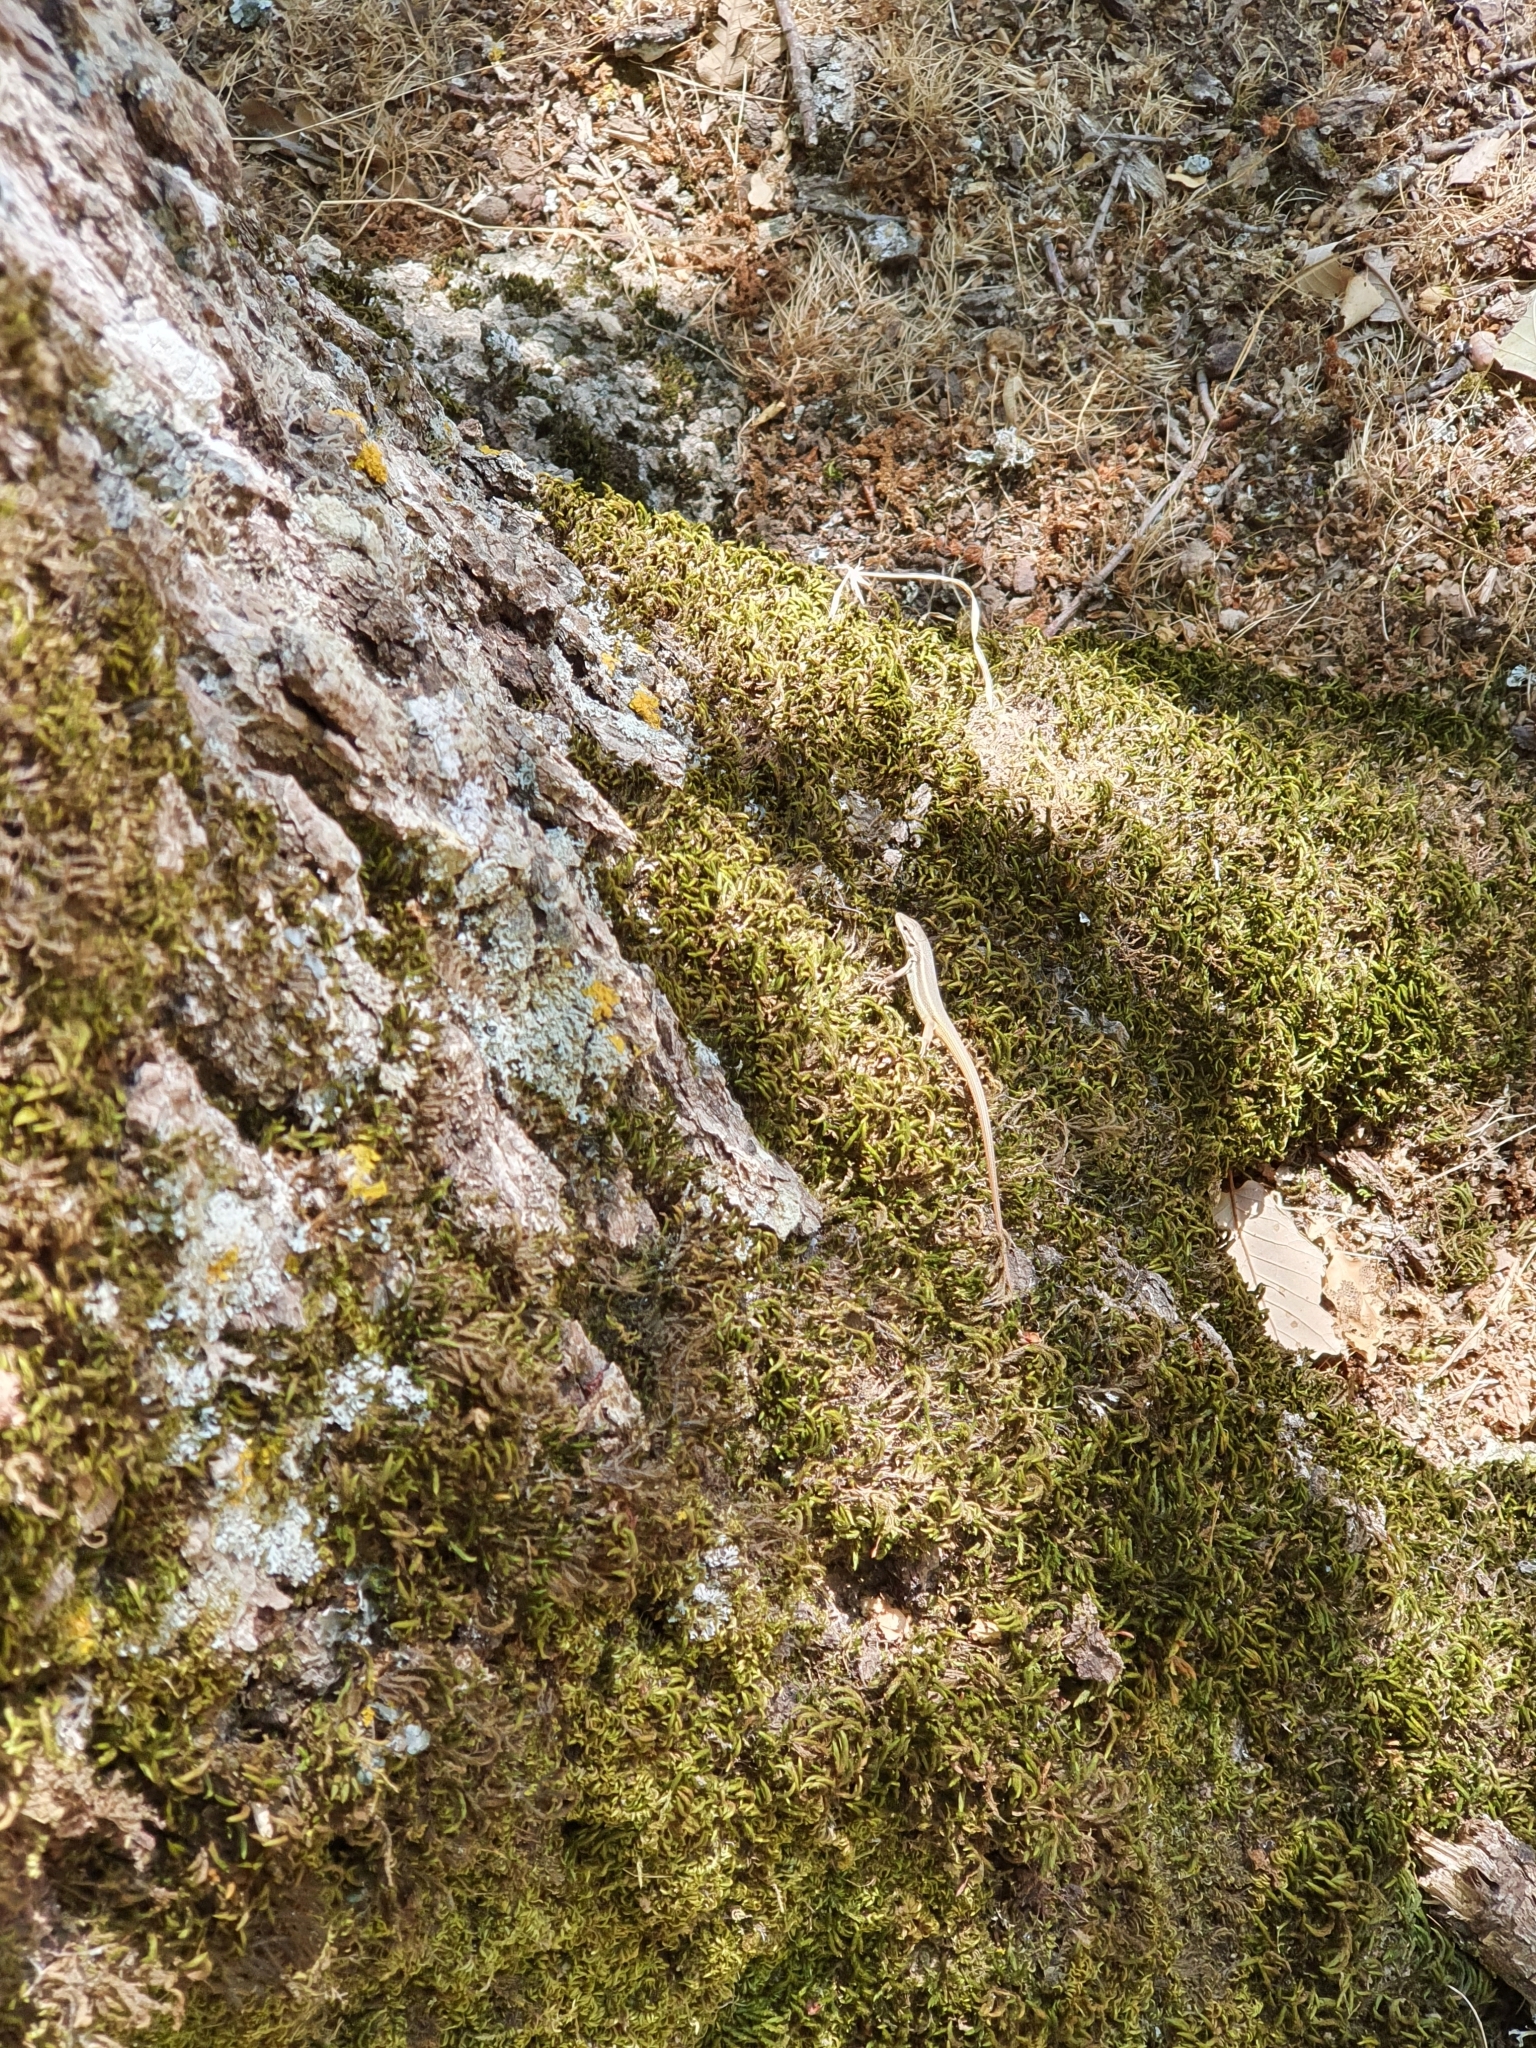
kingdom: Animalia
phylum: Chordata
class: Squamata
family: Lacertidae
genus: Psammodromus
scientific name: Psammodromus algirus
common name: Algerian psammodromus
